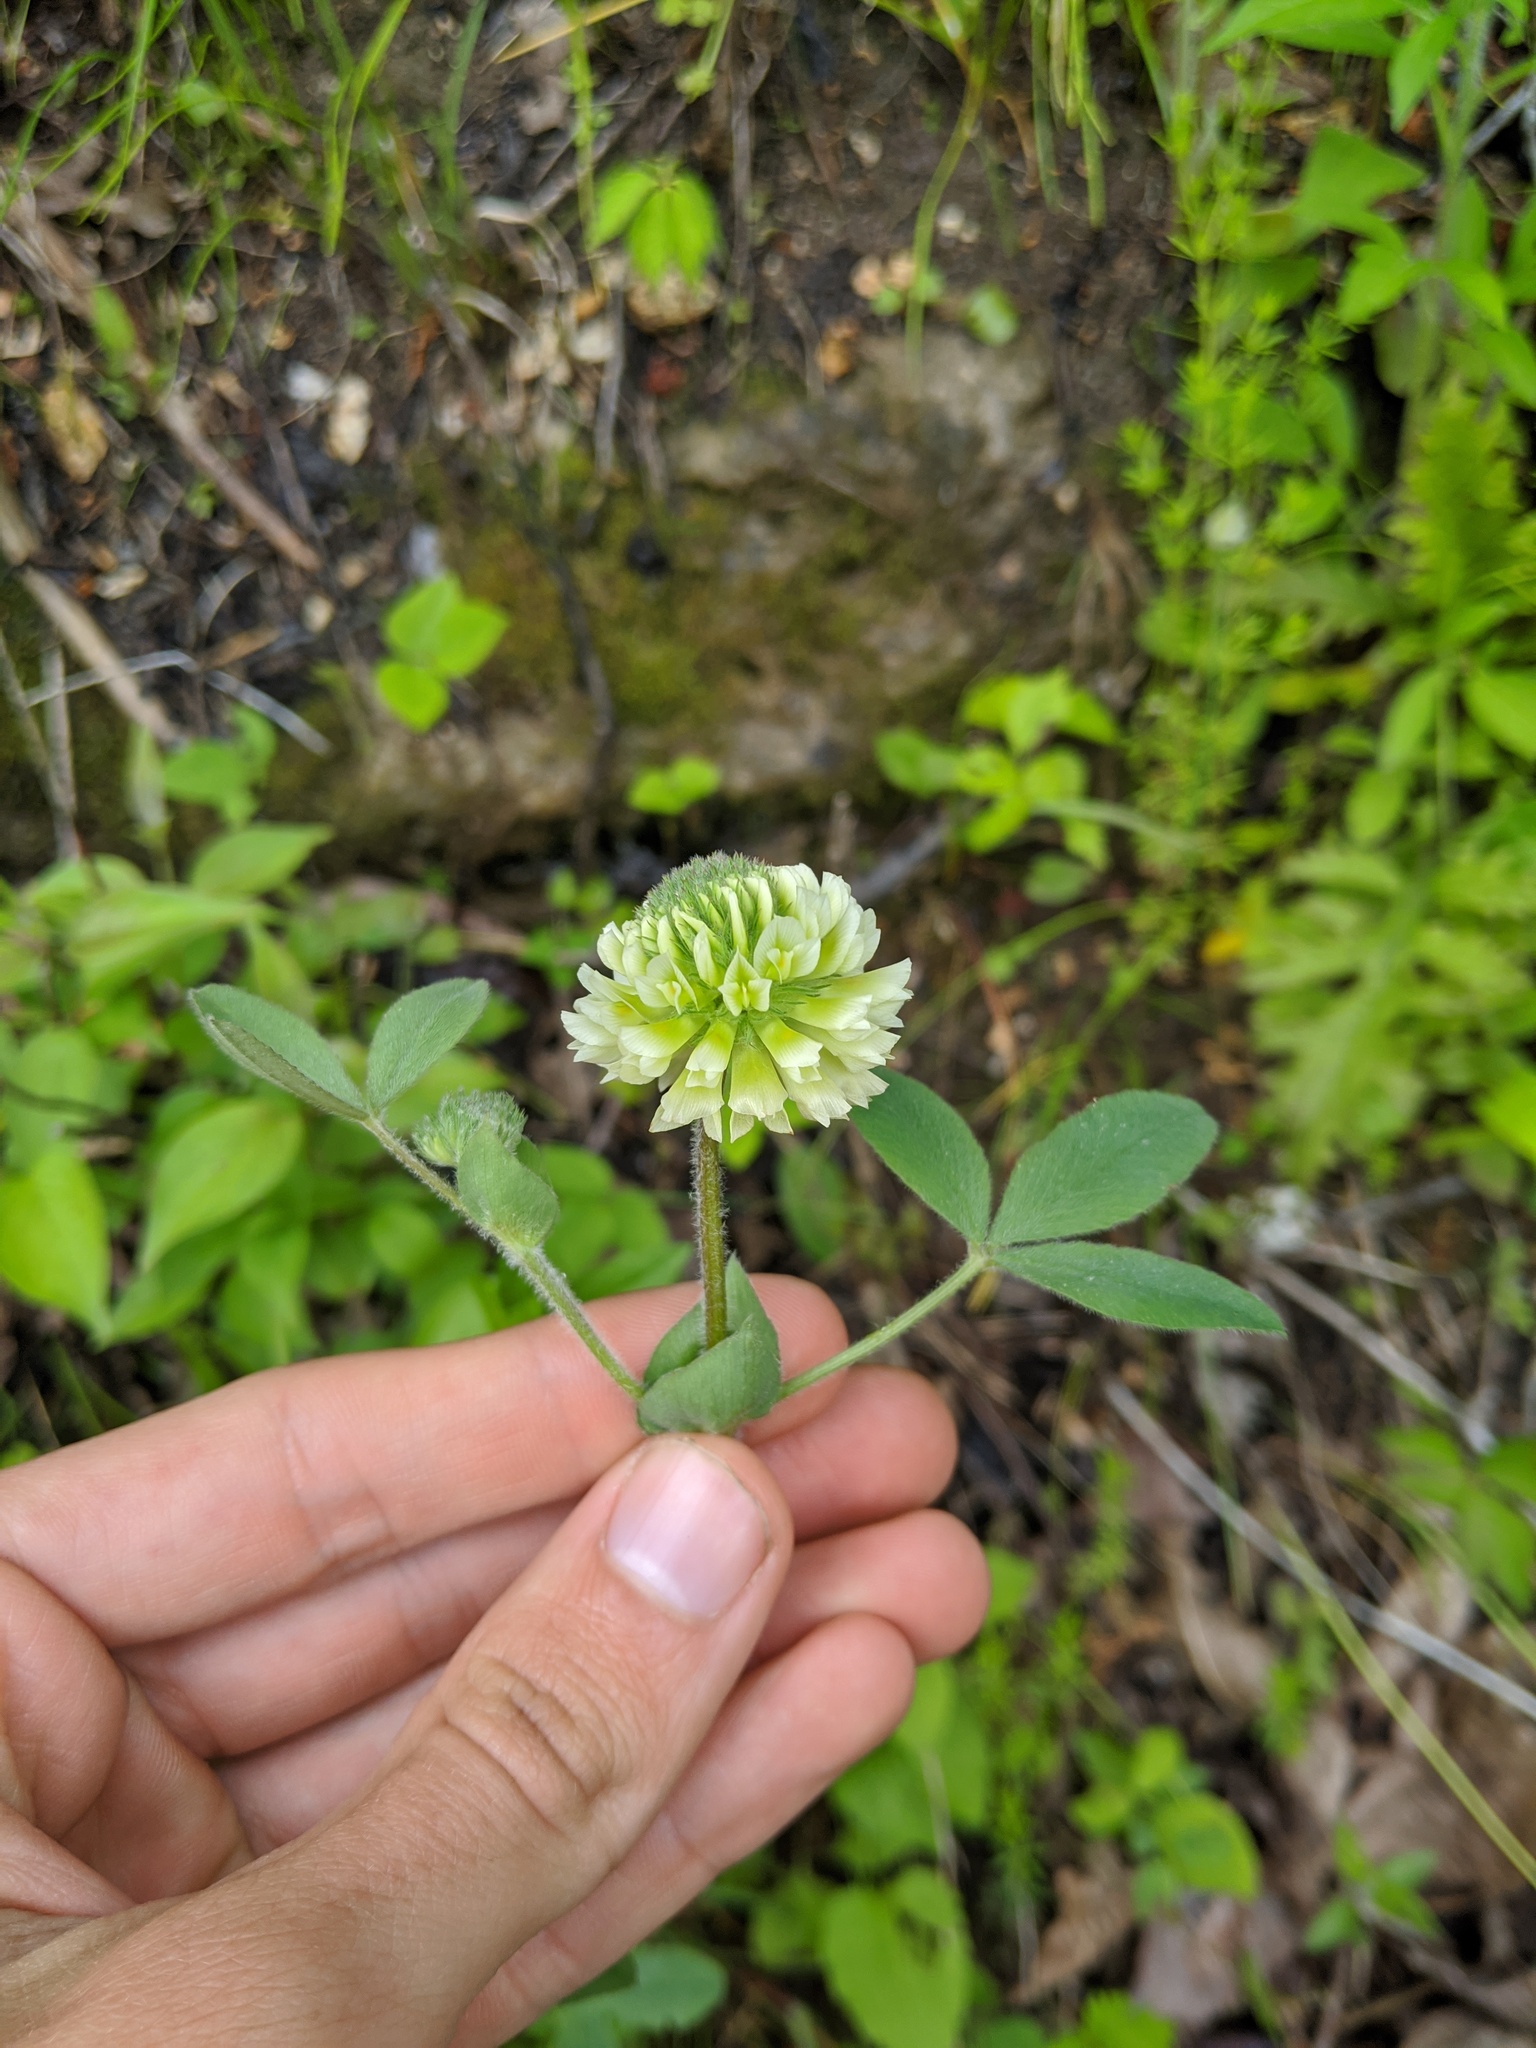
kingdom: Plantae
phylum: Tracheophyta
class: Magnoliopsida
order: Fabales
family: Fabaceae
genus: Trifolium
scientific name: Trifolium reflexum
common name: Buffalo clover
